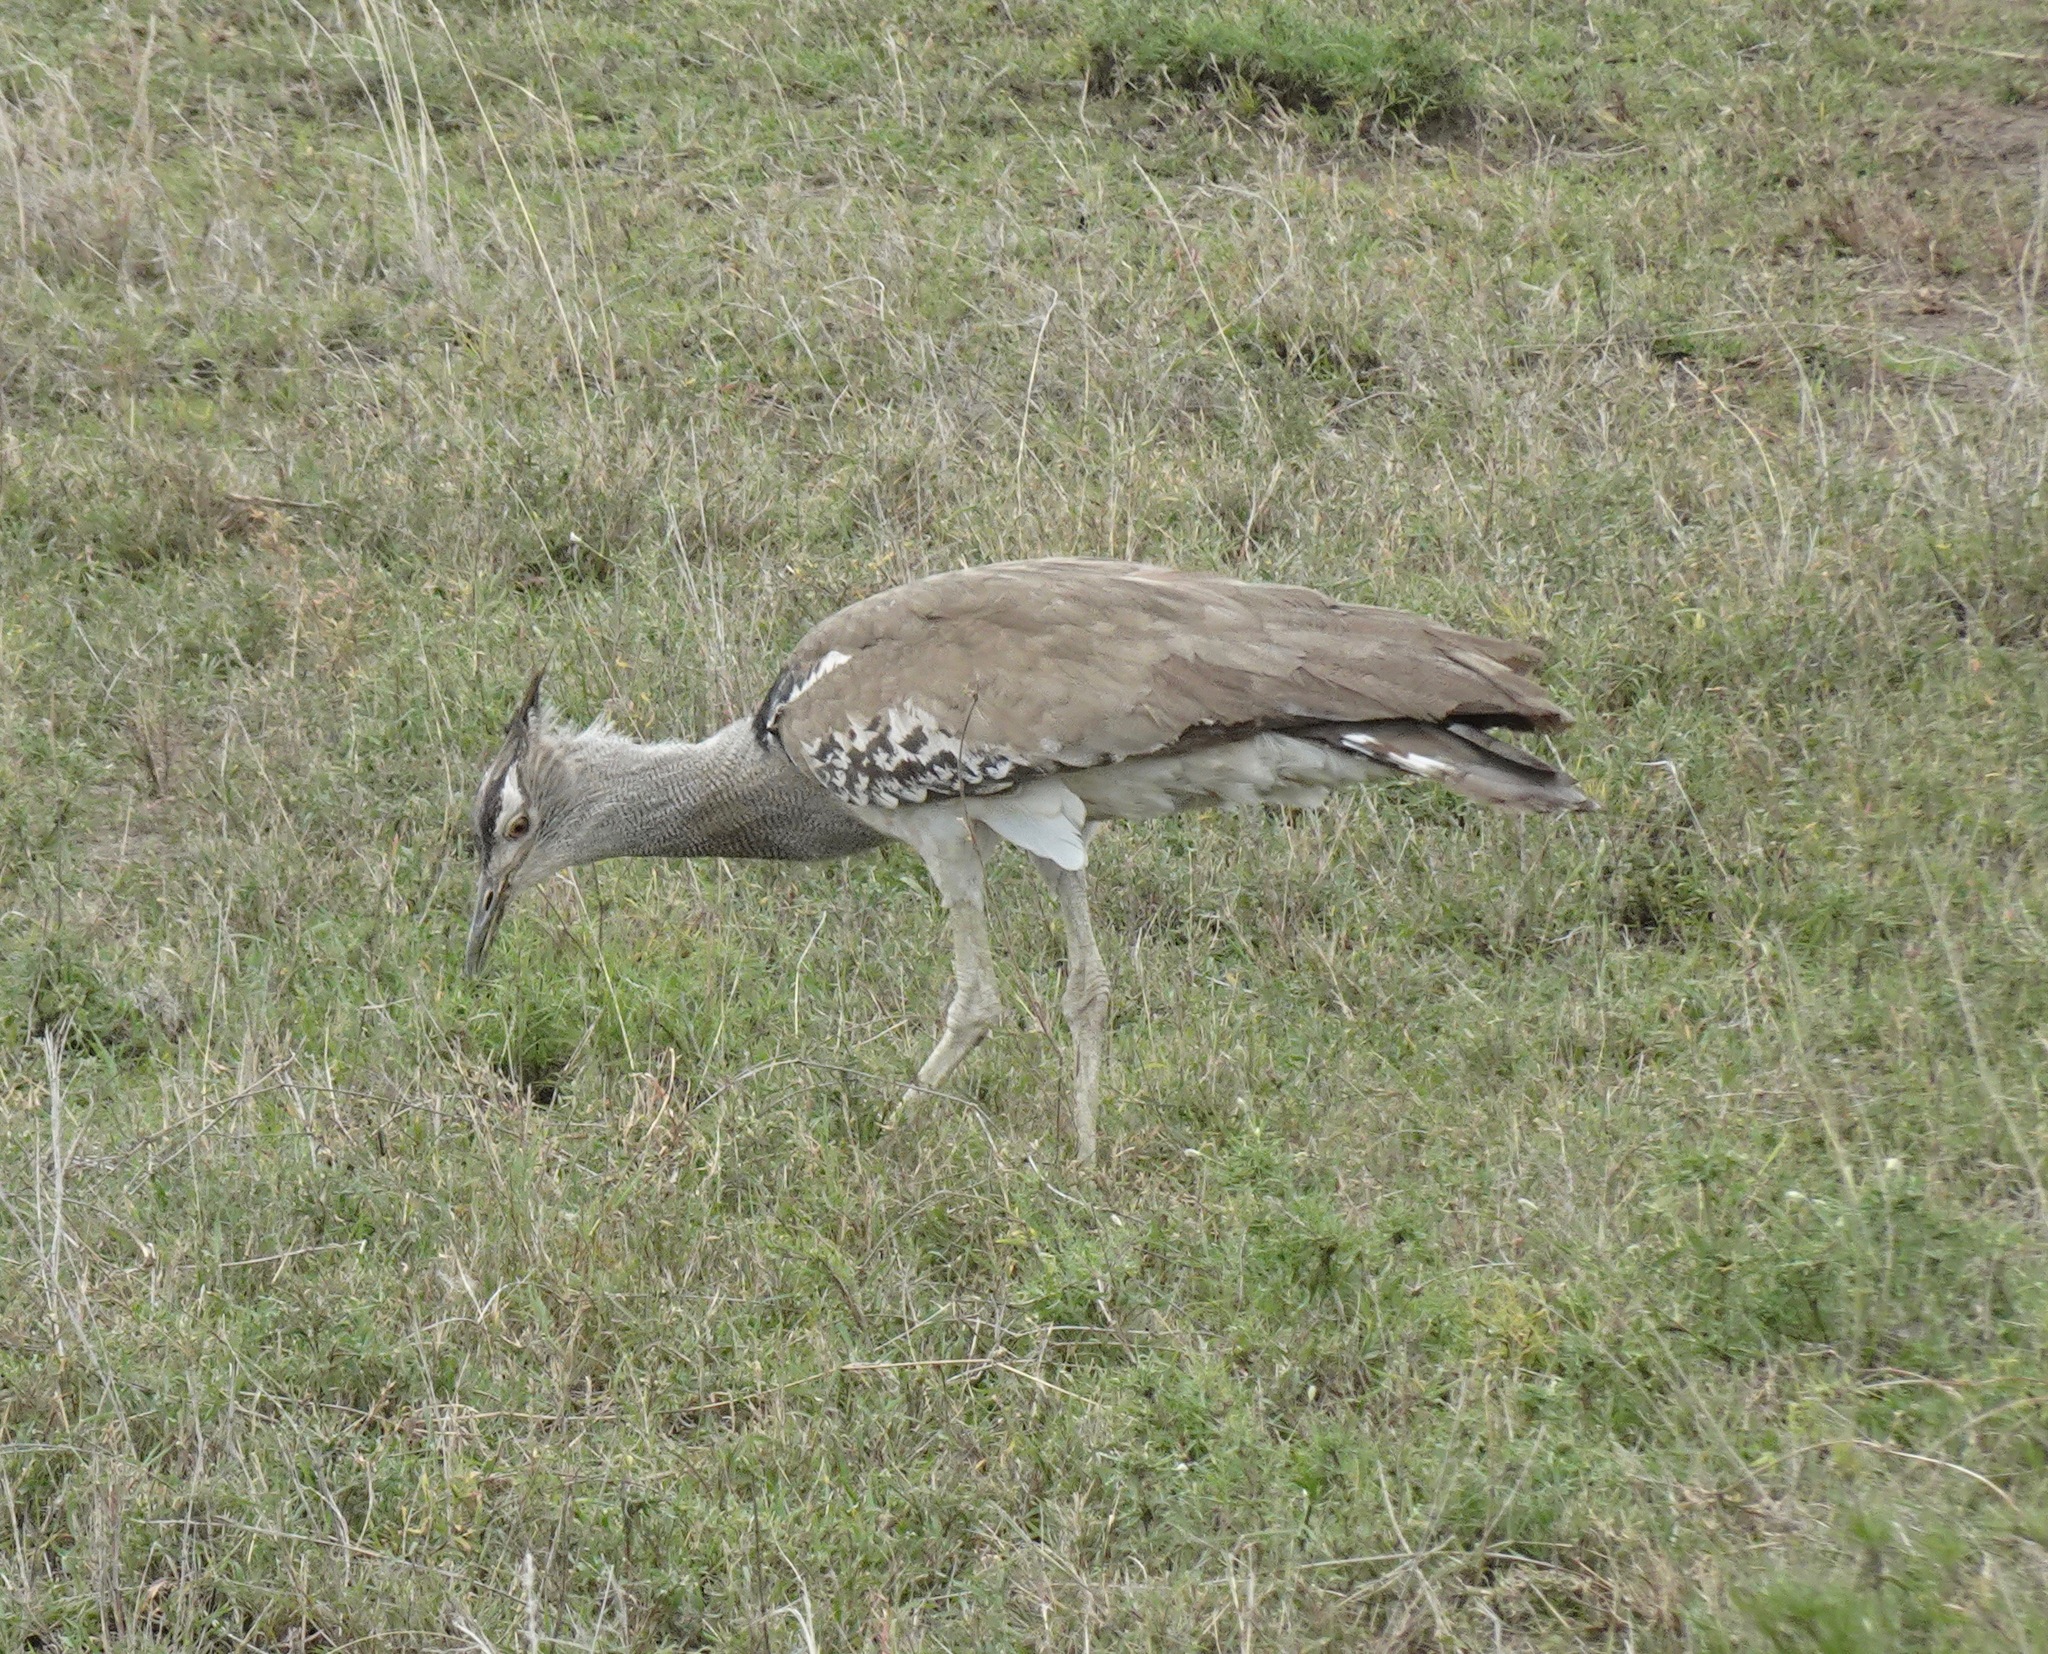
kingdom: Animalia
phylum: Chordata
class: Aves
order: Otidiformes
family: Otididae
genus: Ardeotis
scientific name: Ardeotis kori
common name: Kori bustard
